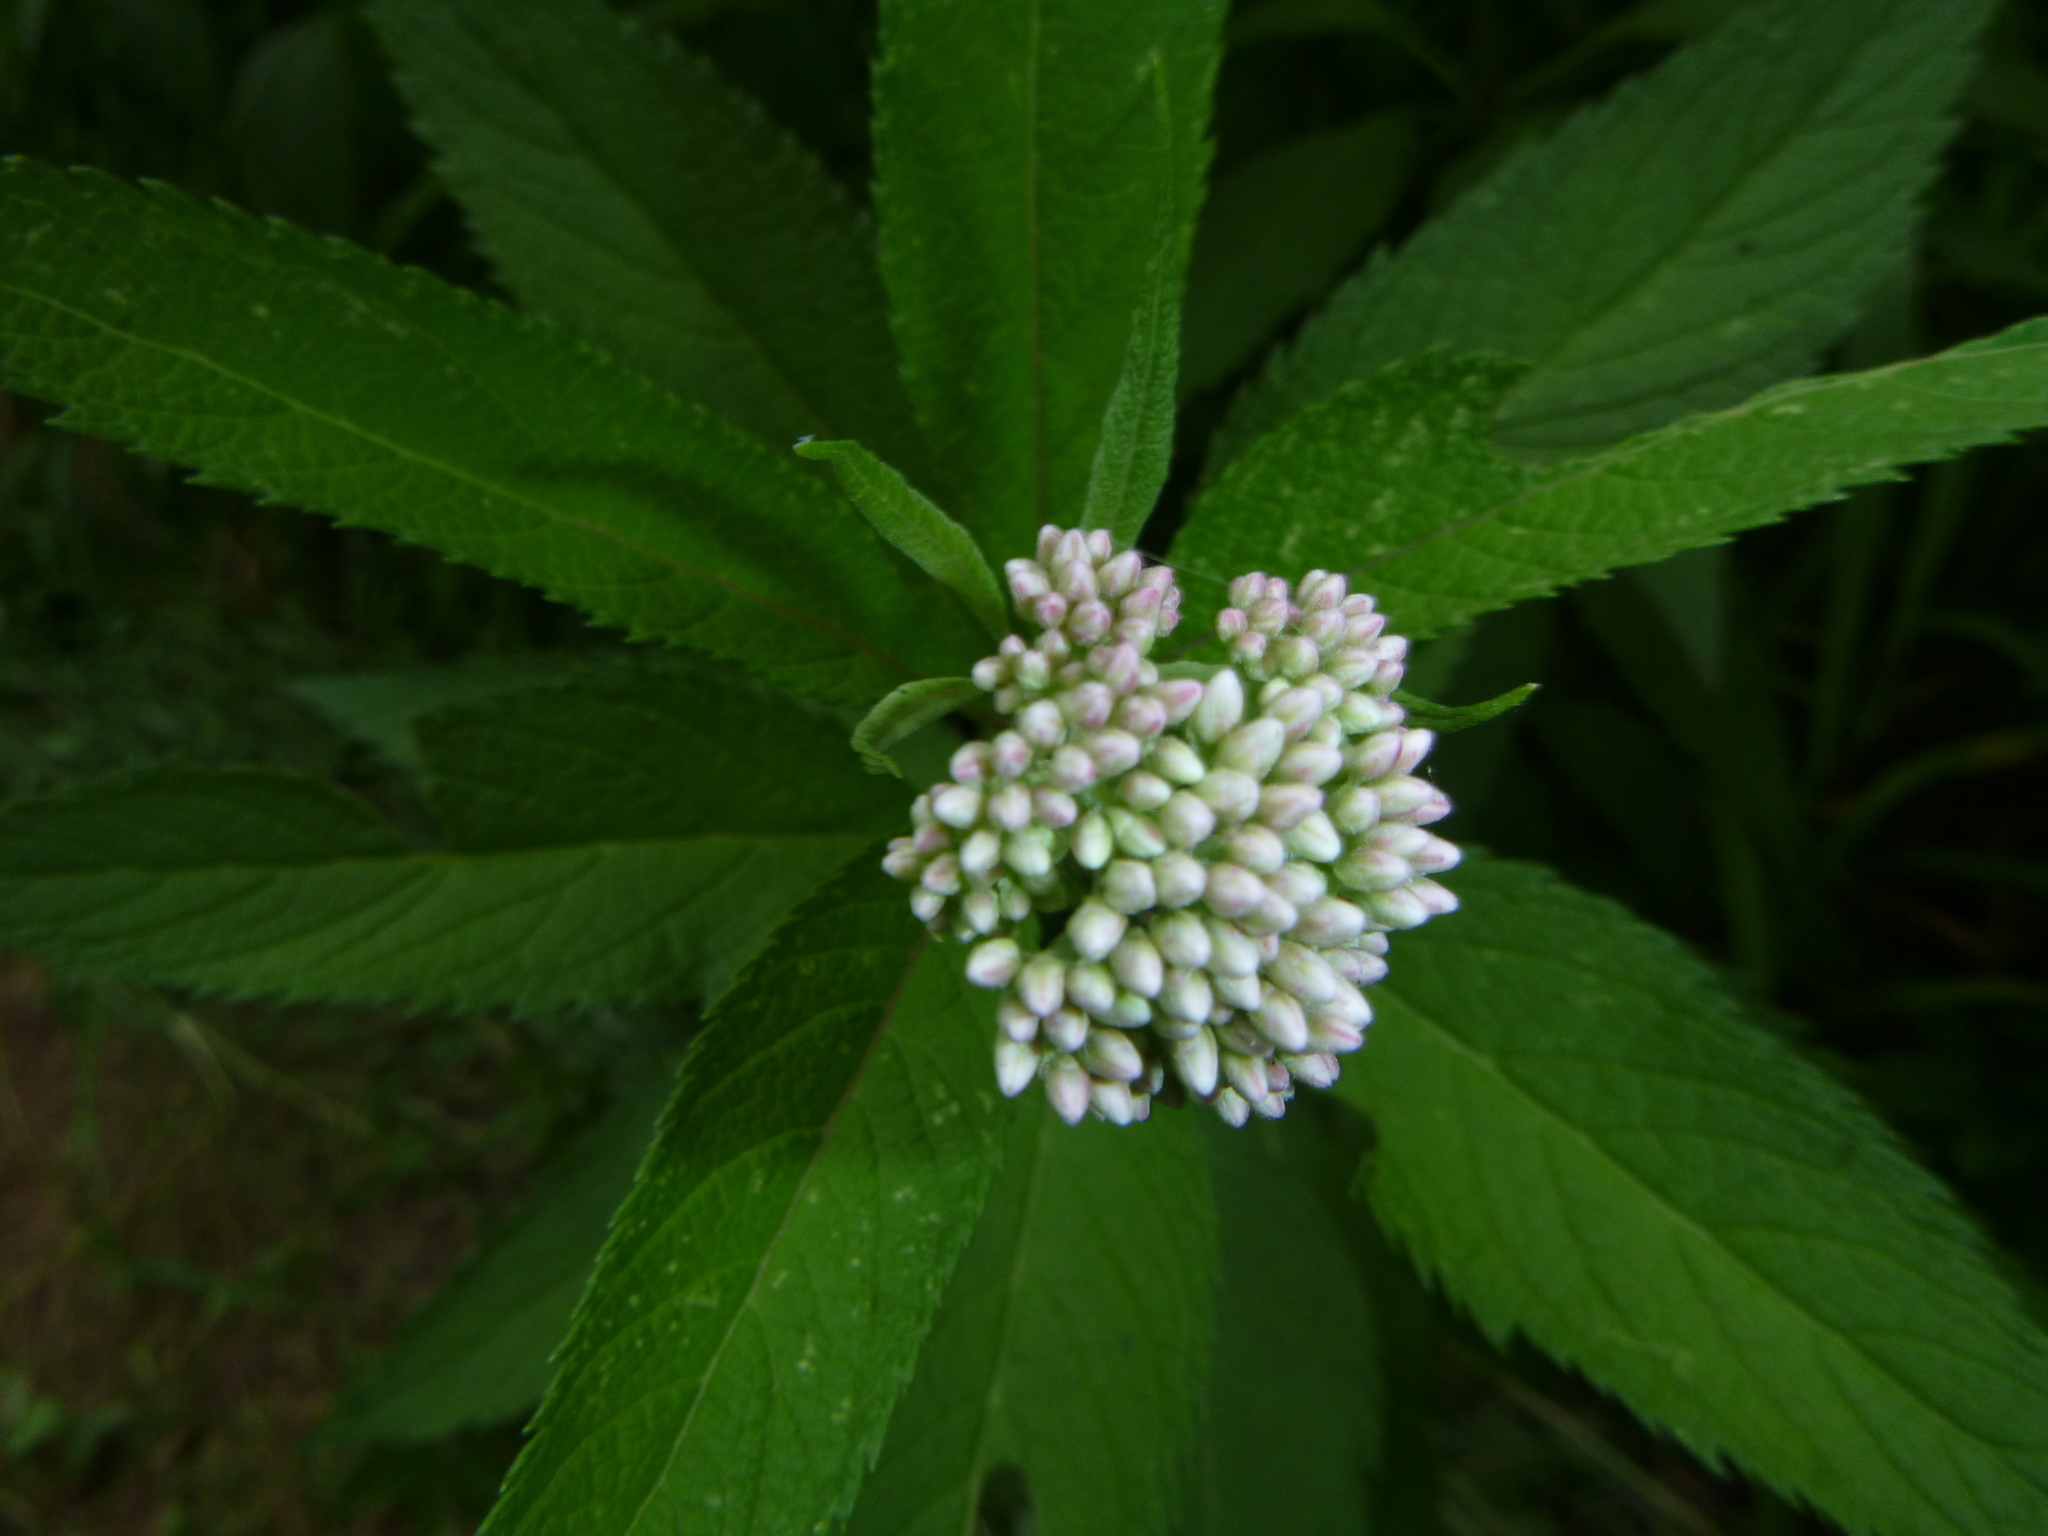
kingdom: Plantae
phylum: Tracheophyta
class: Magnoliopsida
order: Asterales
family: Asteraceae
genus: Eutrochium
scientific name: Eutrochium maculatum
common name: Spotted joe pye weed
